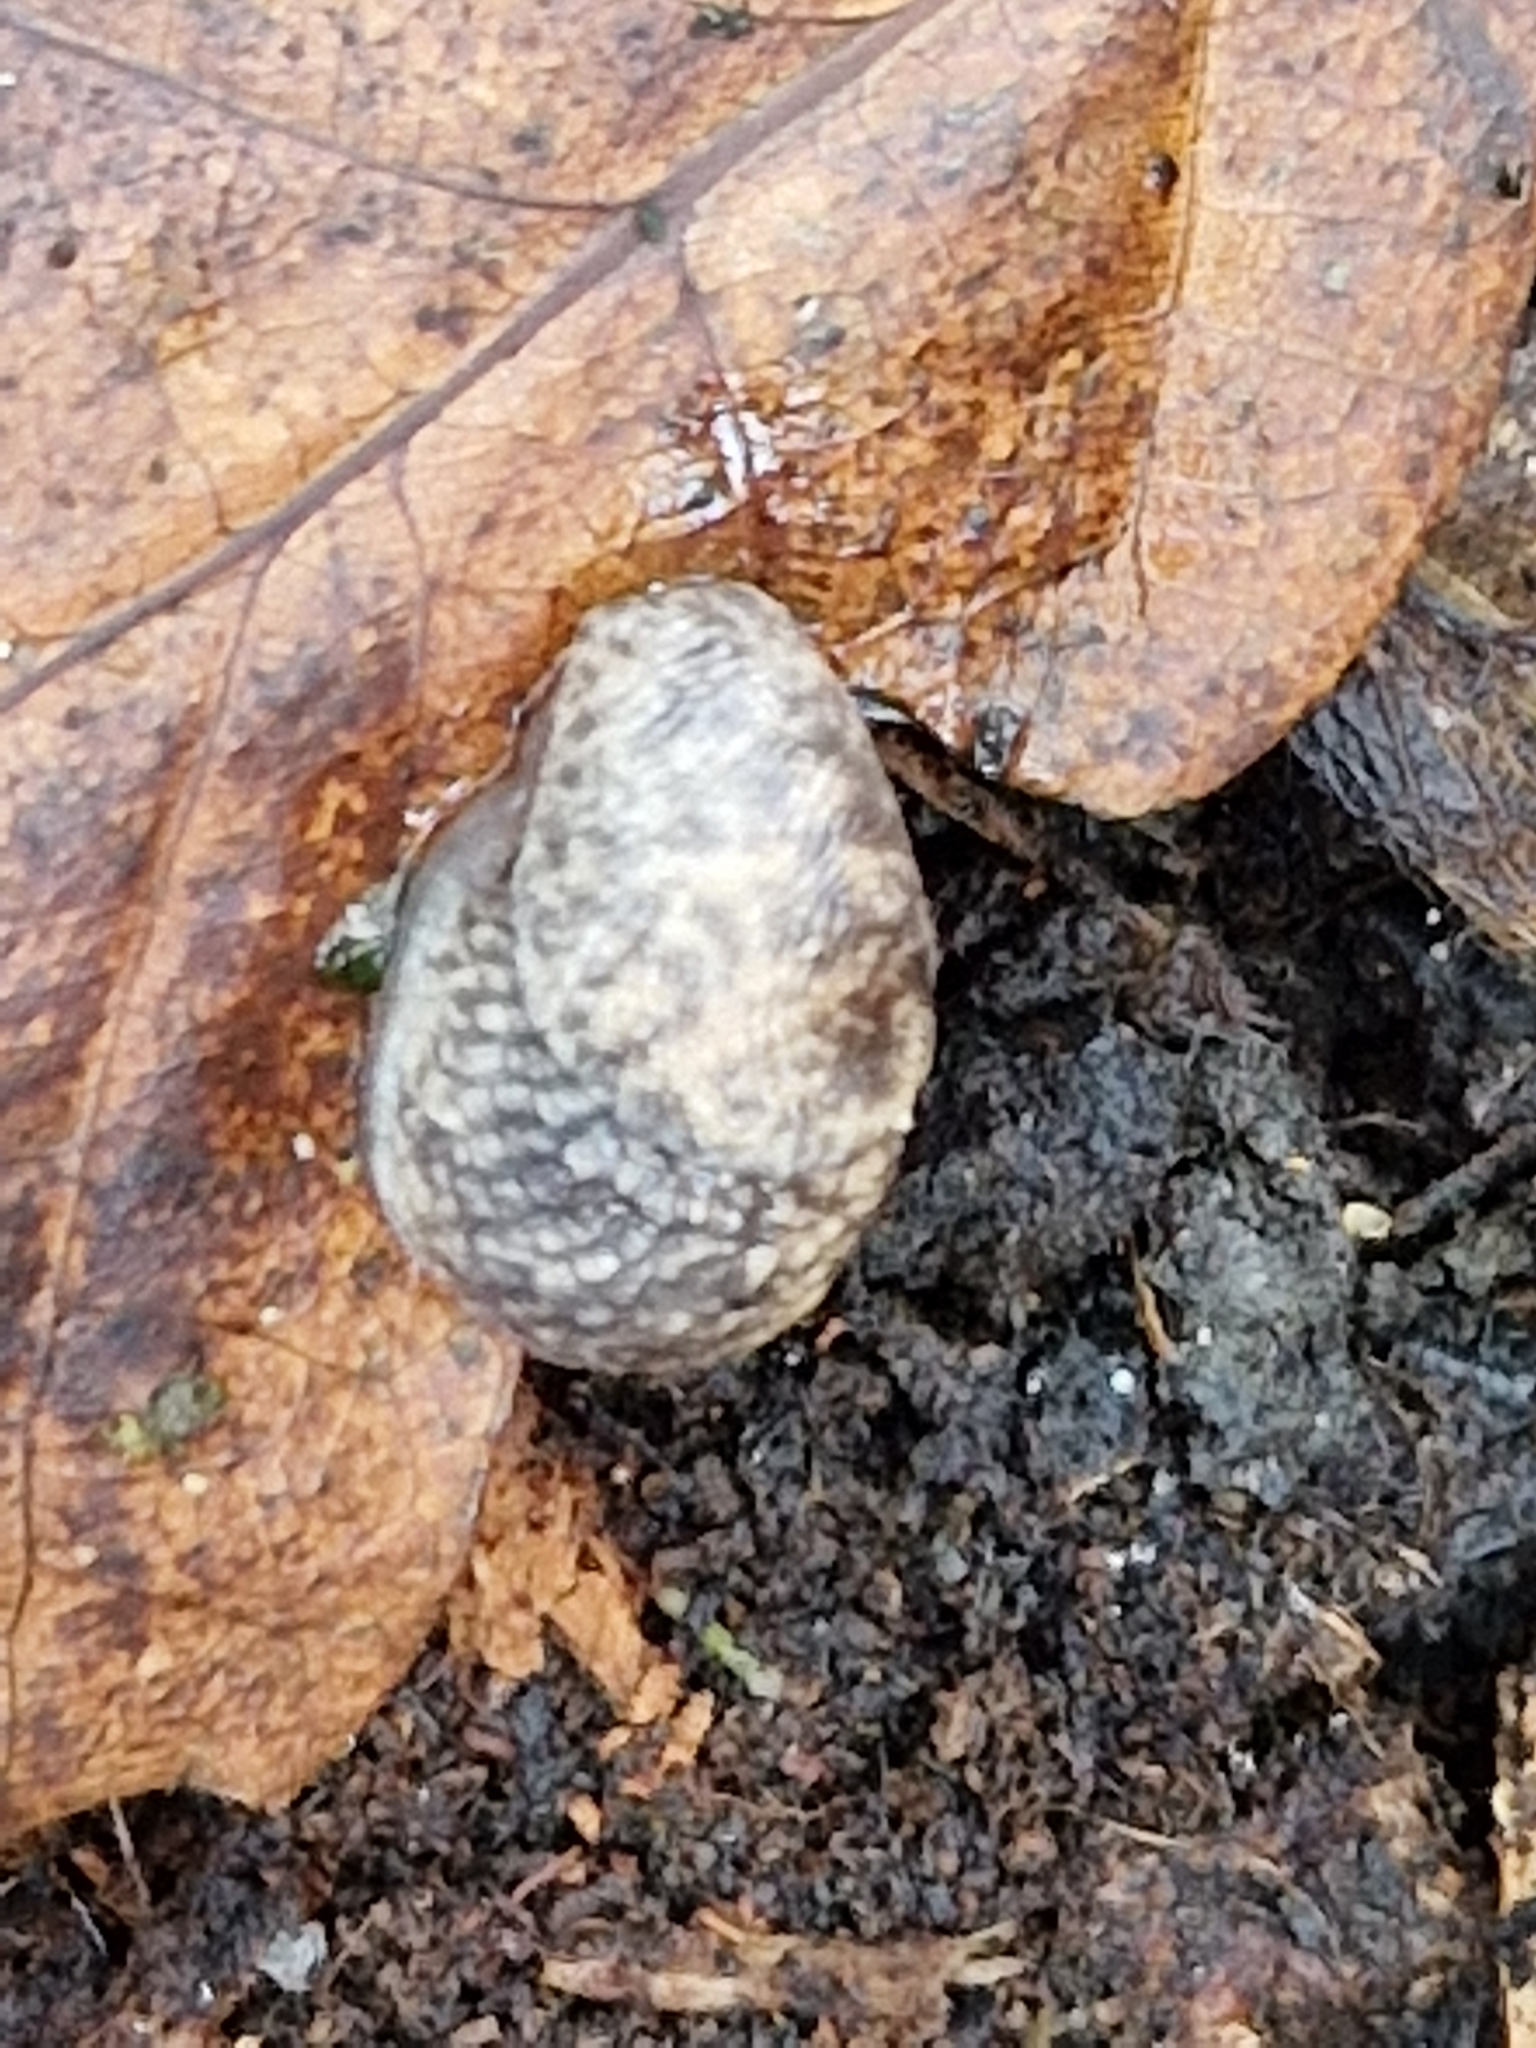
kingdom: Animalia
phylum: Mollusca
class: Gastropoda
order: Stylommatophora
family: Agriolimacidae
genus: Deroceras
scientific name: Deroceras reticulatum
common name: Gray field slug
